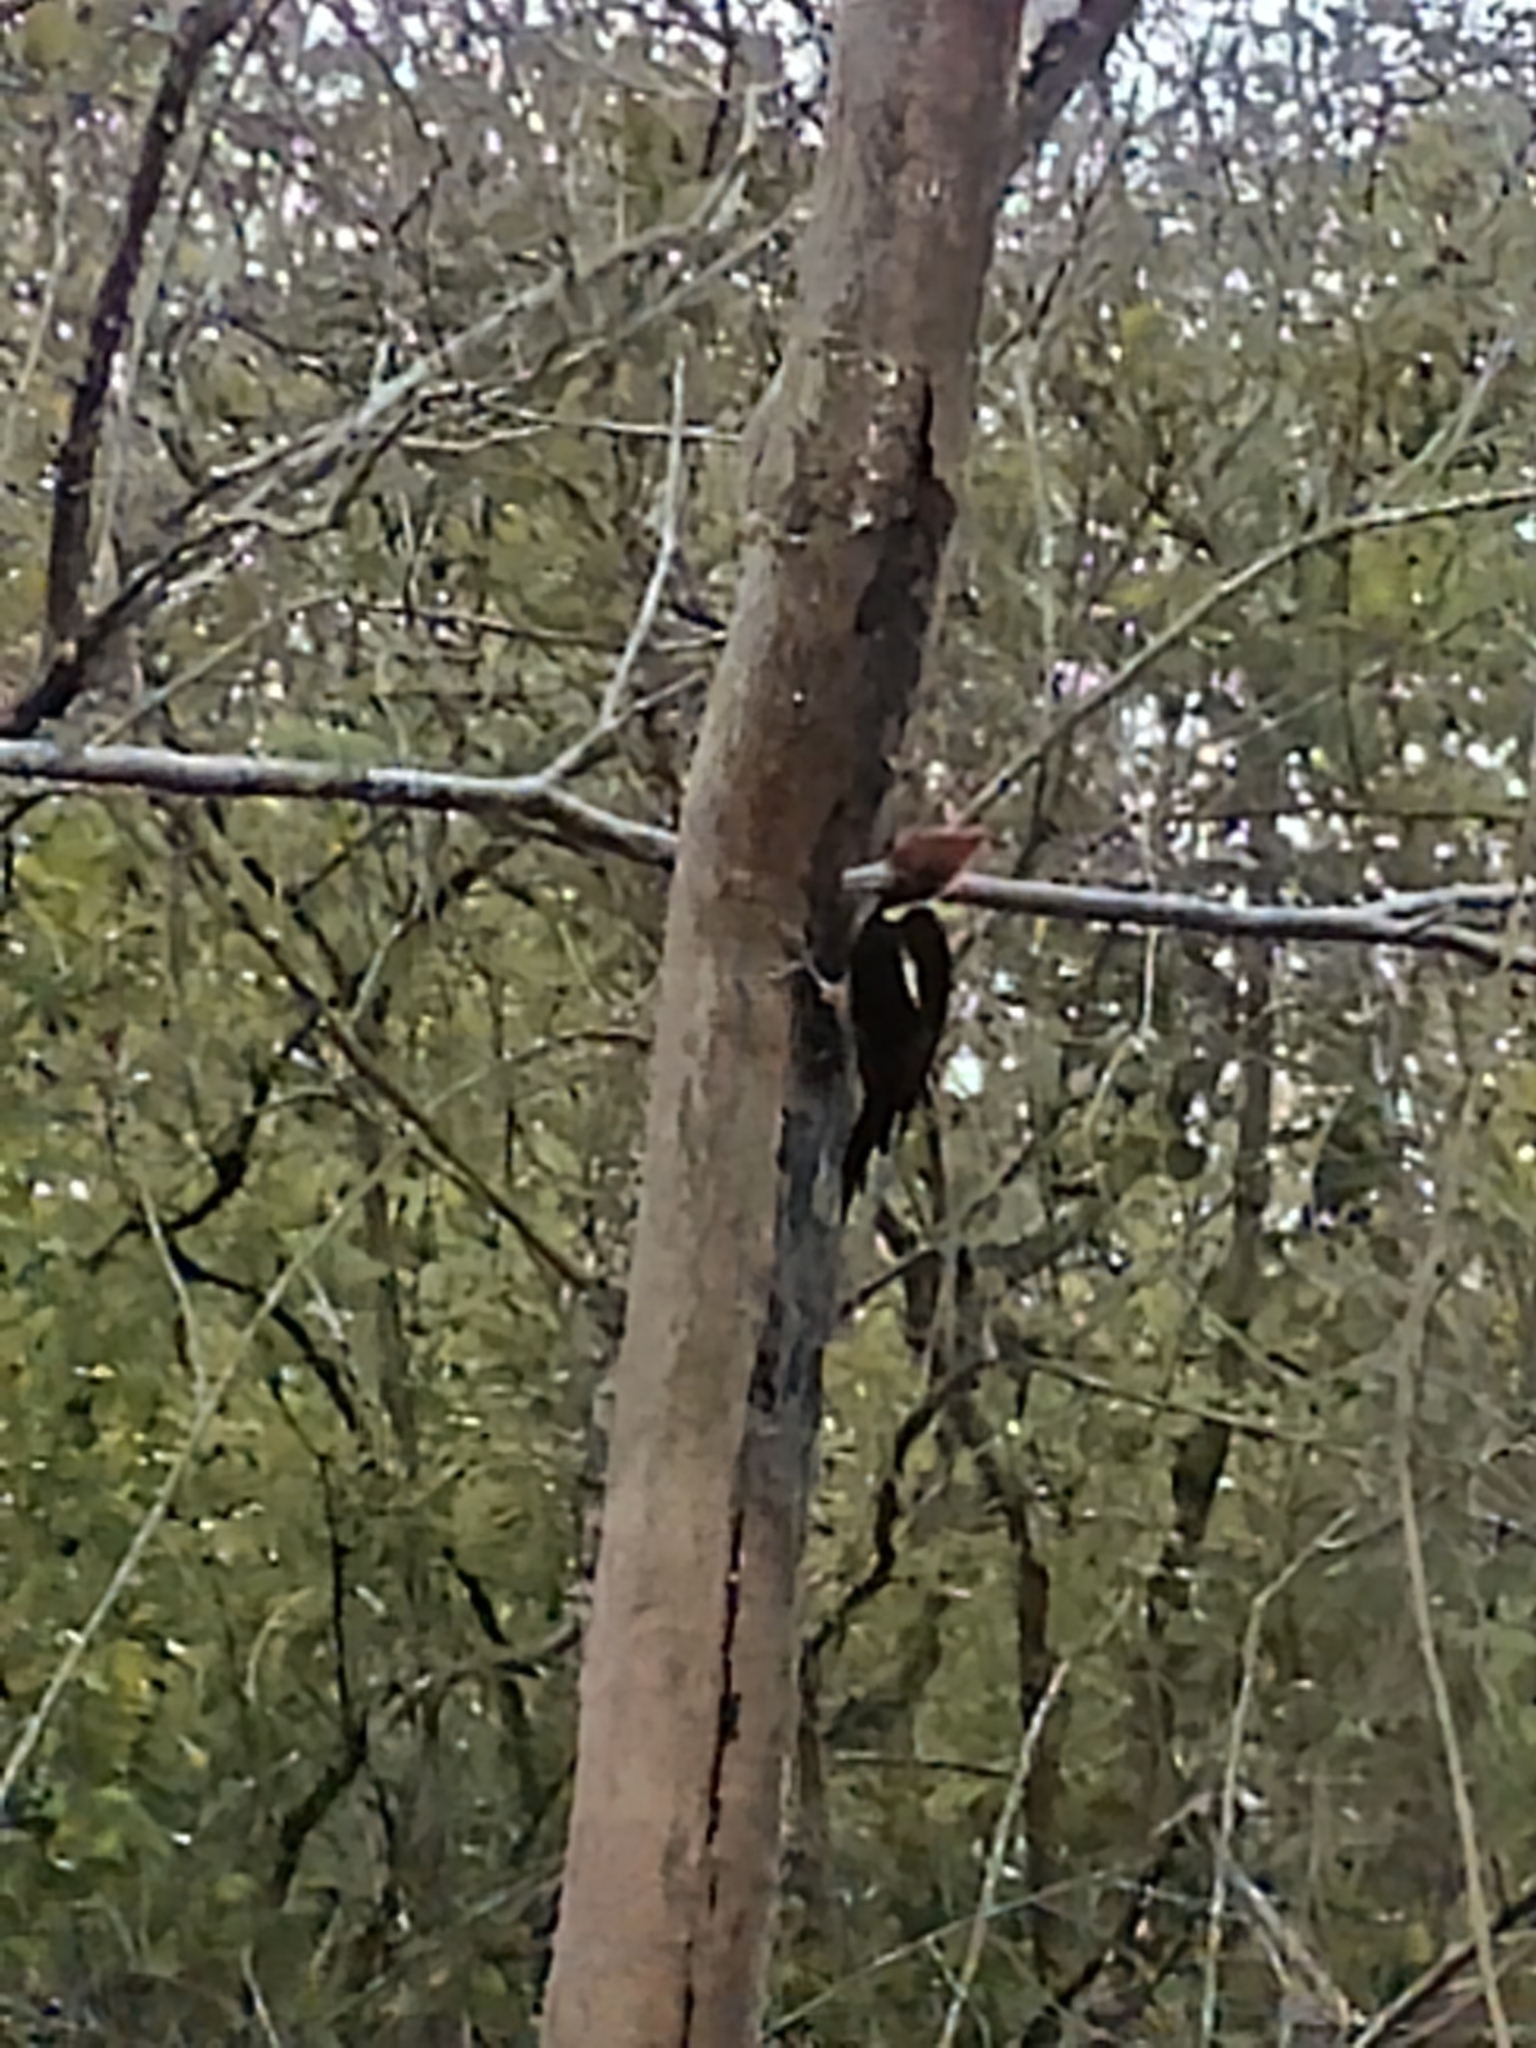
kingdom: Animalia
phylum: Chordata
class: Aves
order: Piciformes
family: Picidae
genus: Campephilus
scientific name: Campephilus guatemalensis
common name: Pale-billed woodpecker
